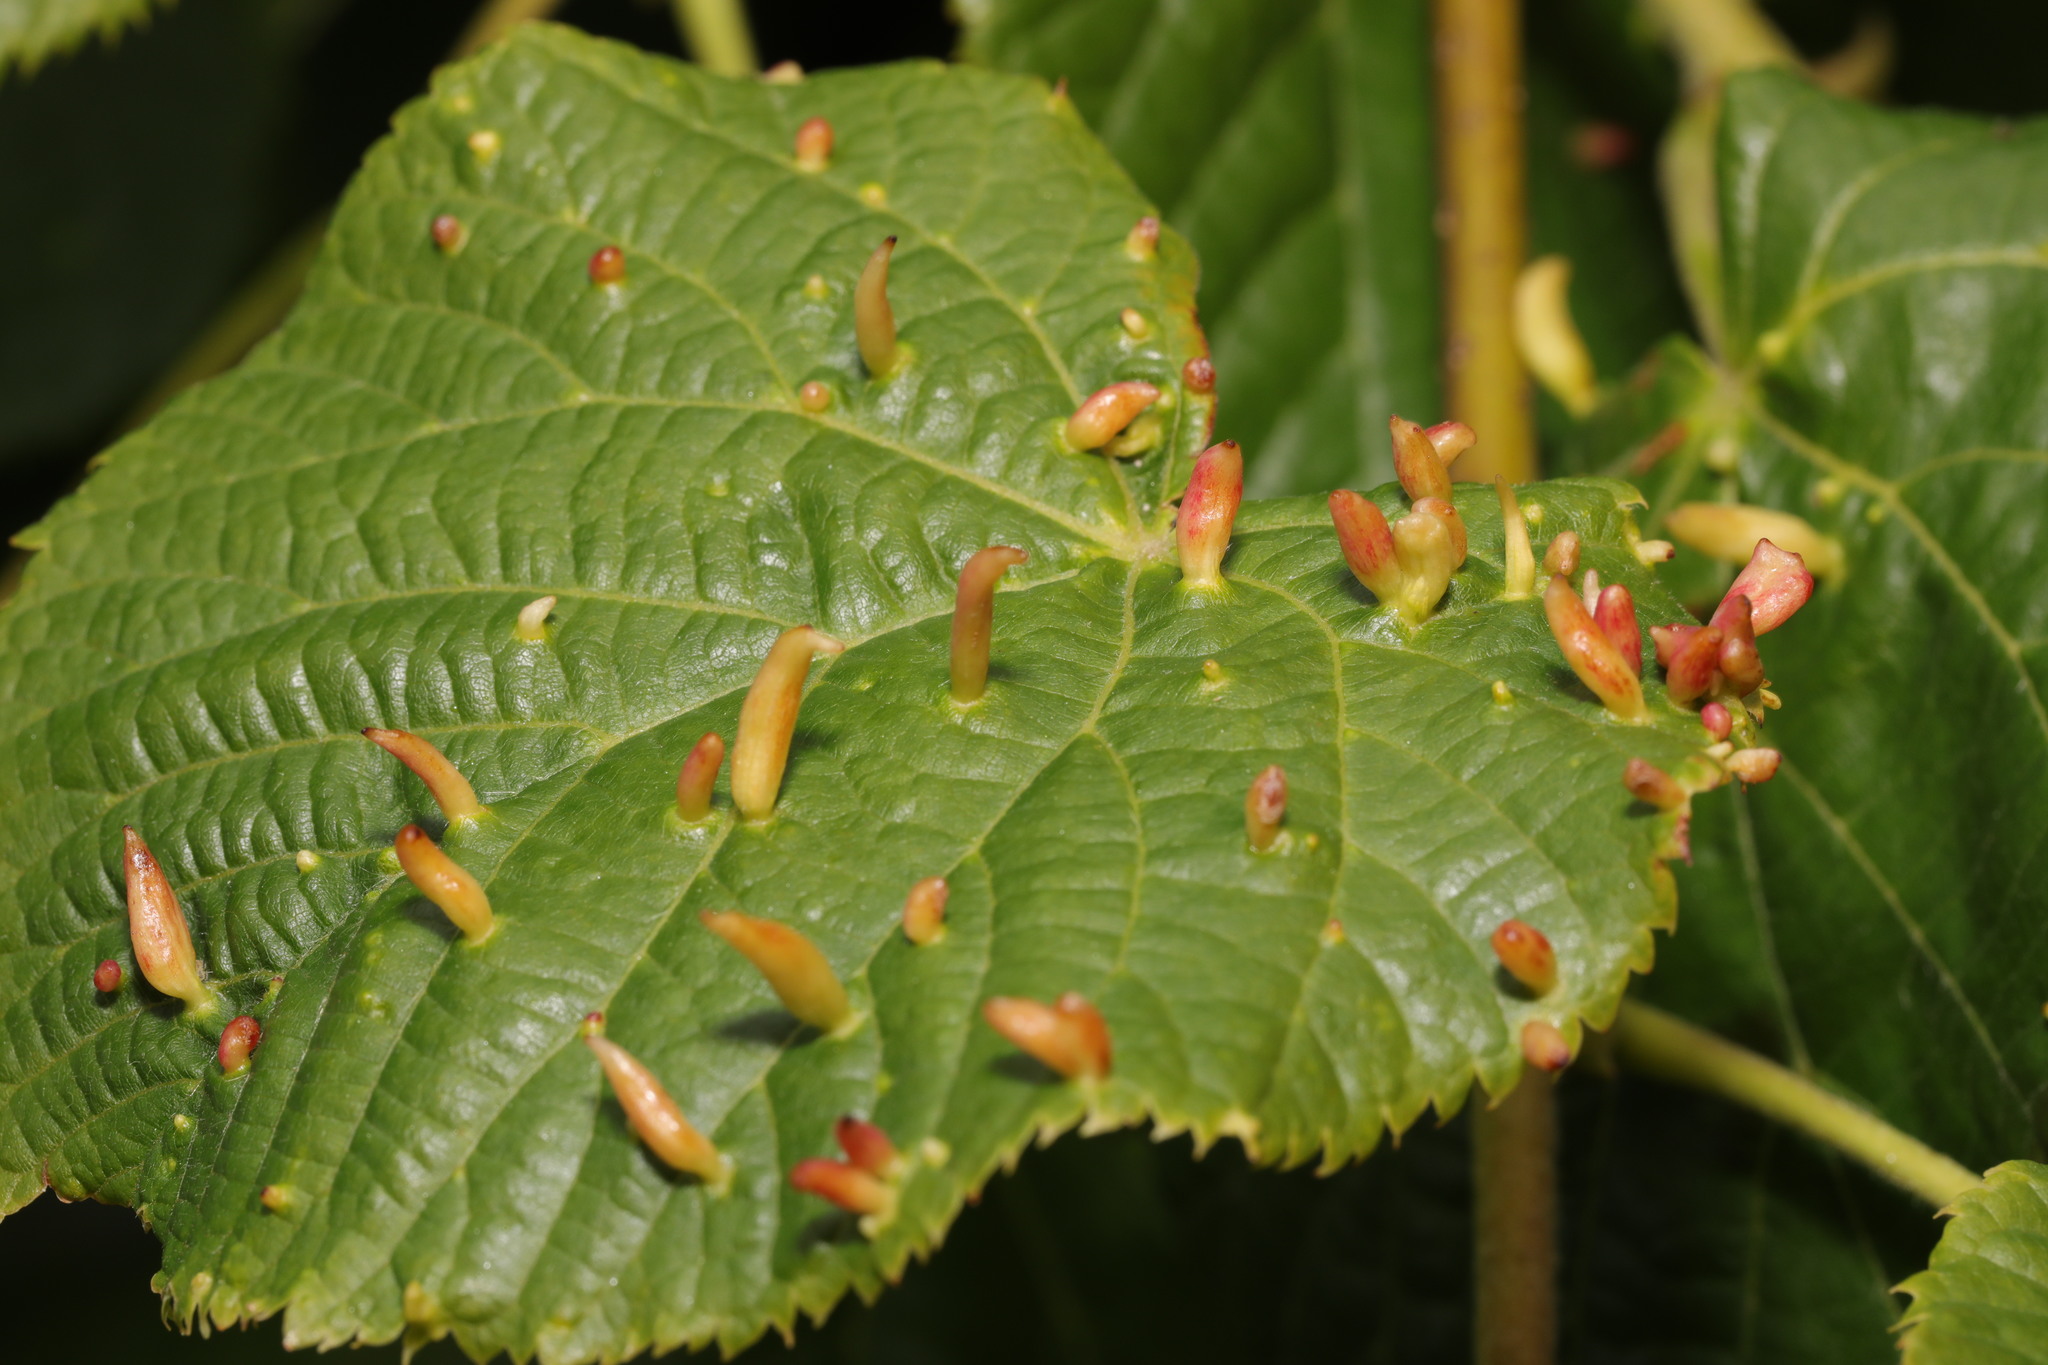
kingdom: Animalia
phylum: Arthropoda
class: Arachnida
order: Trombidiformes
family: Eriophyidae
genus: Eriophyes
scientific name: Eriophyes tiliae
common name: Red nail gall mite
